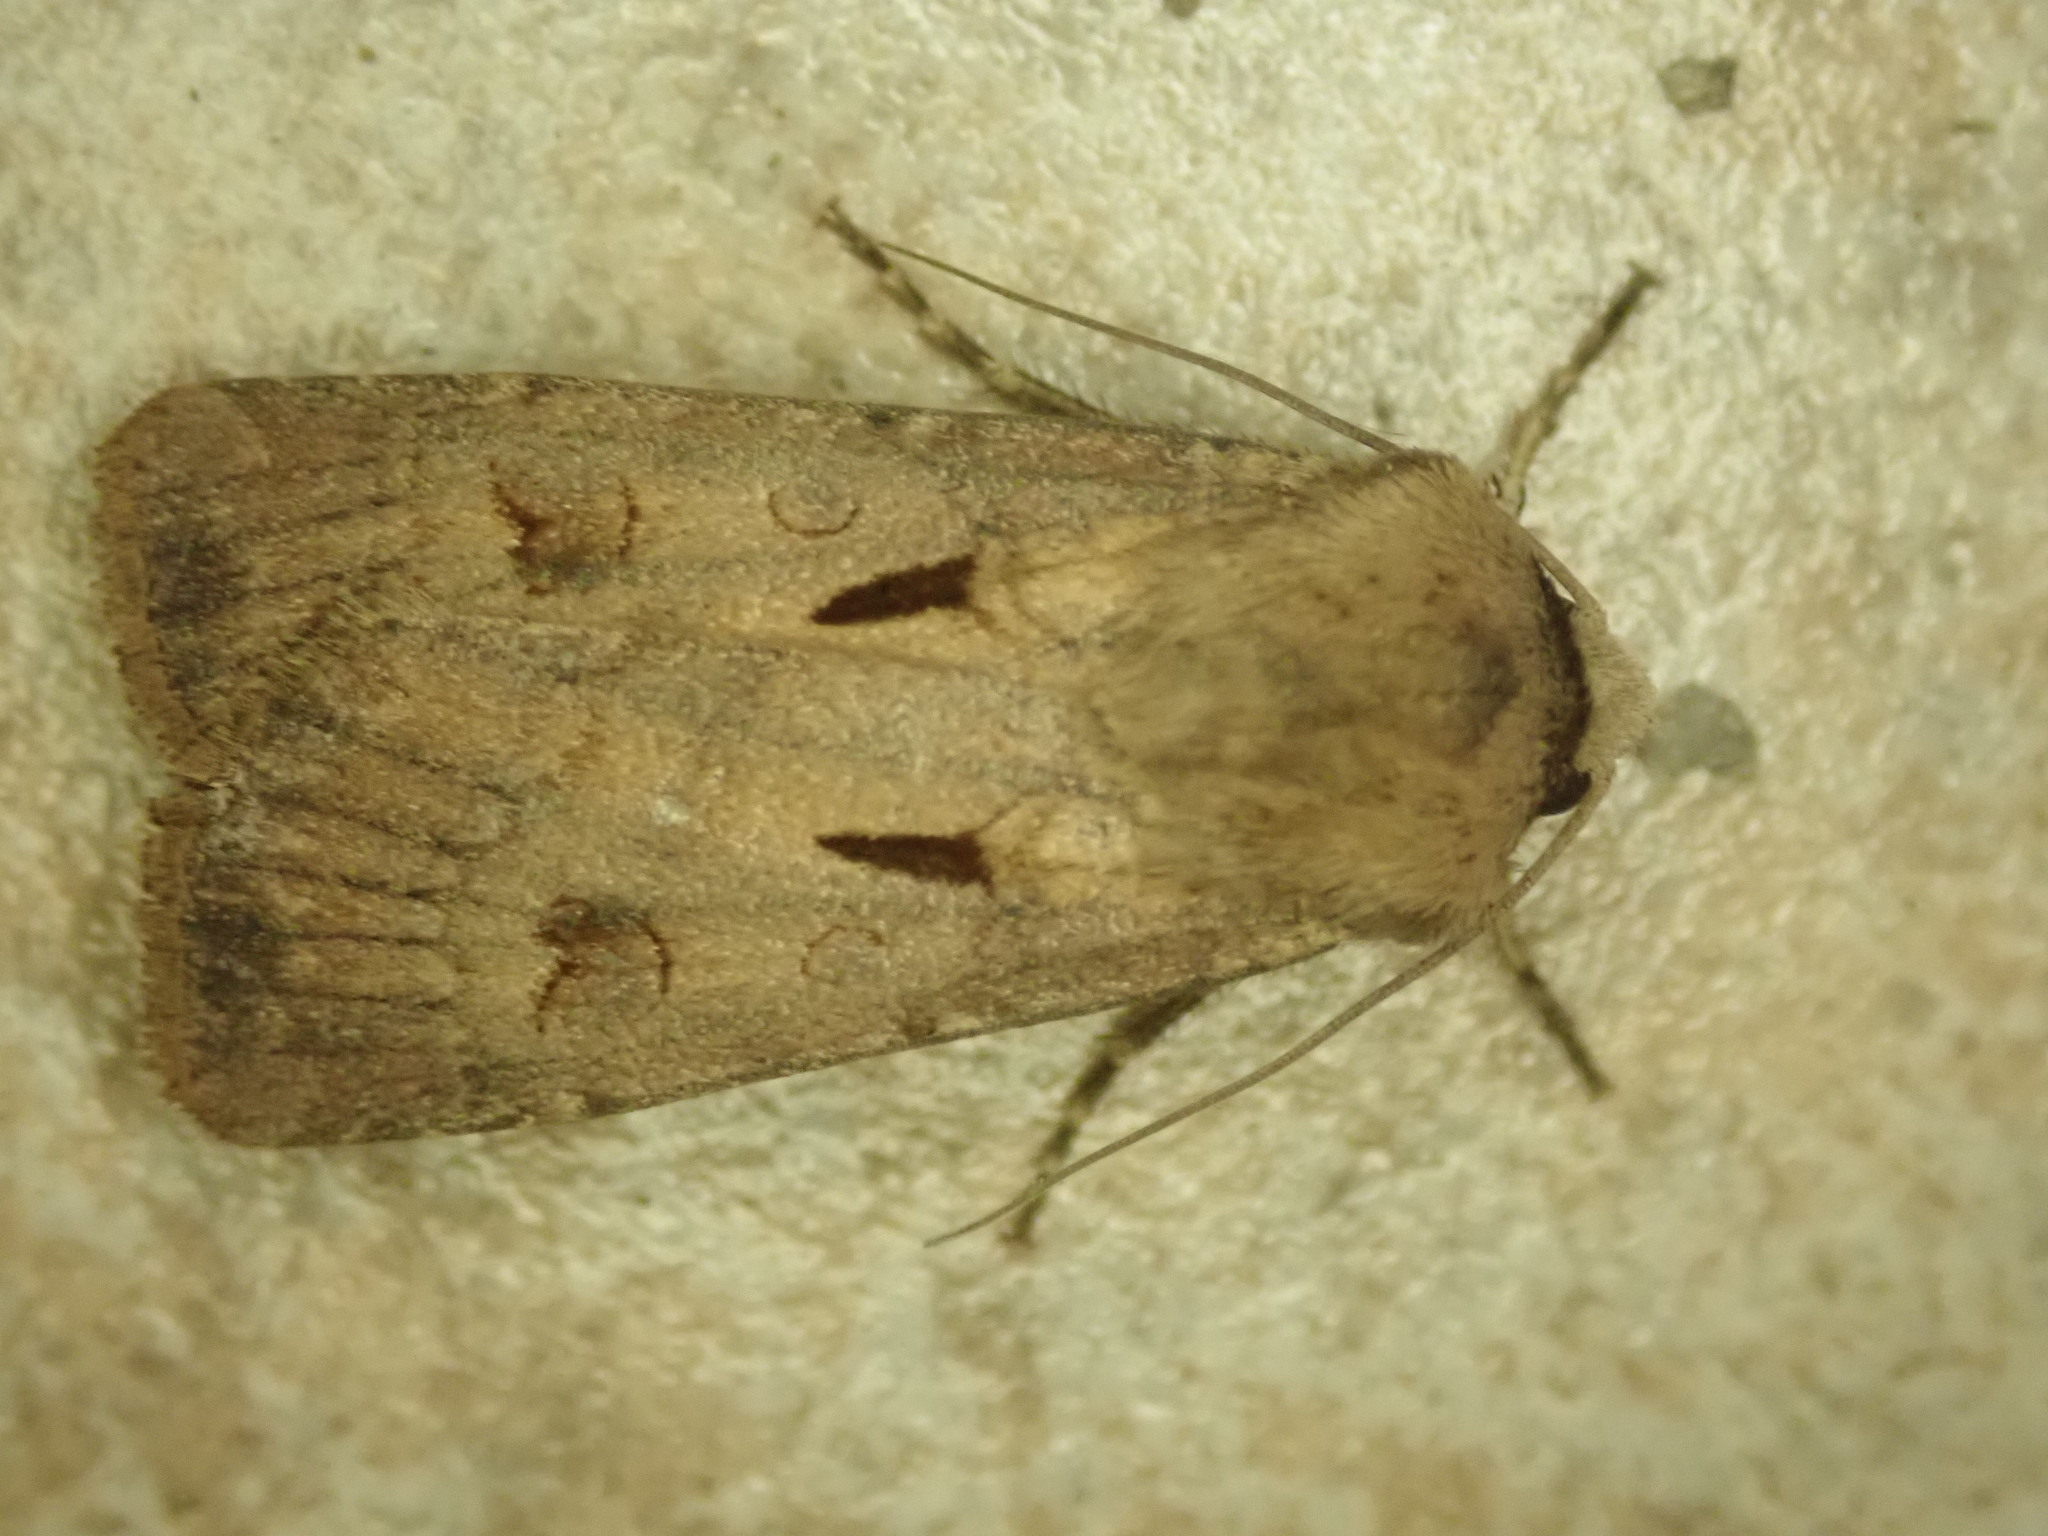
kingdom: Animalia
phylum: Arthropoda
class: Insecta
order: Lepidoptera
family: Noctuidae
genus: Agrotis
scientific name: Agrotis exclamationis
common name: Heart and dart
